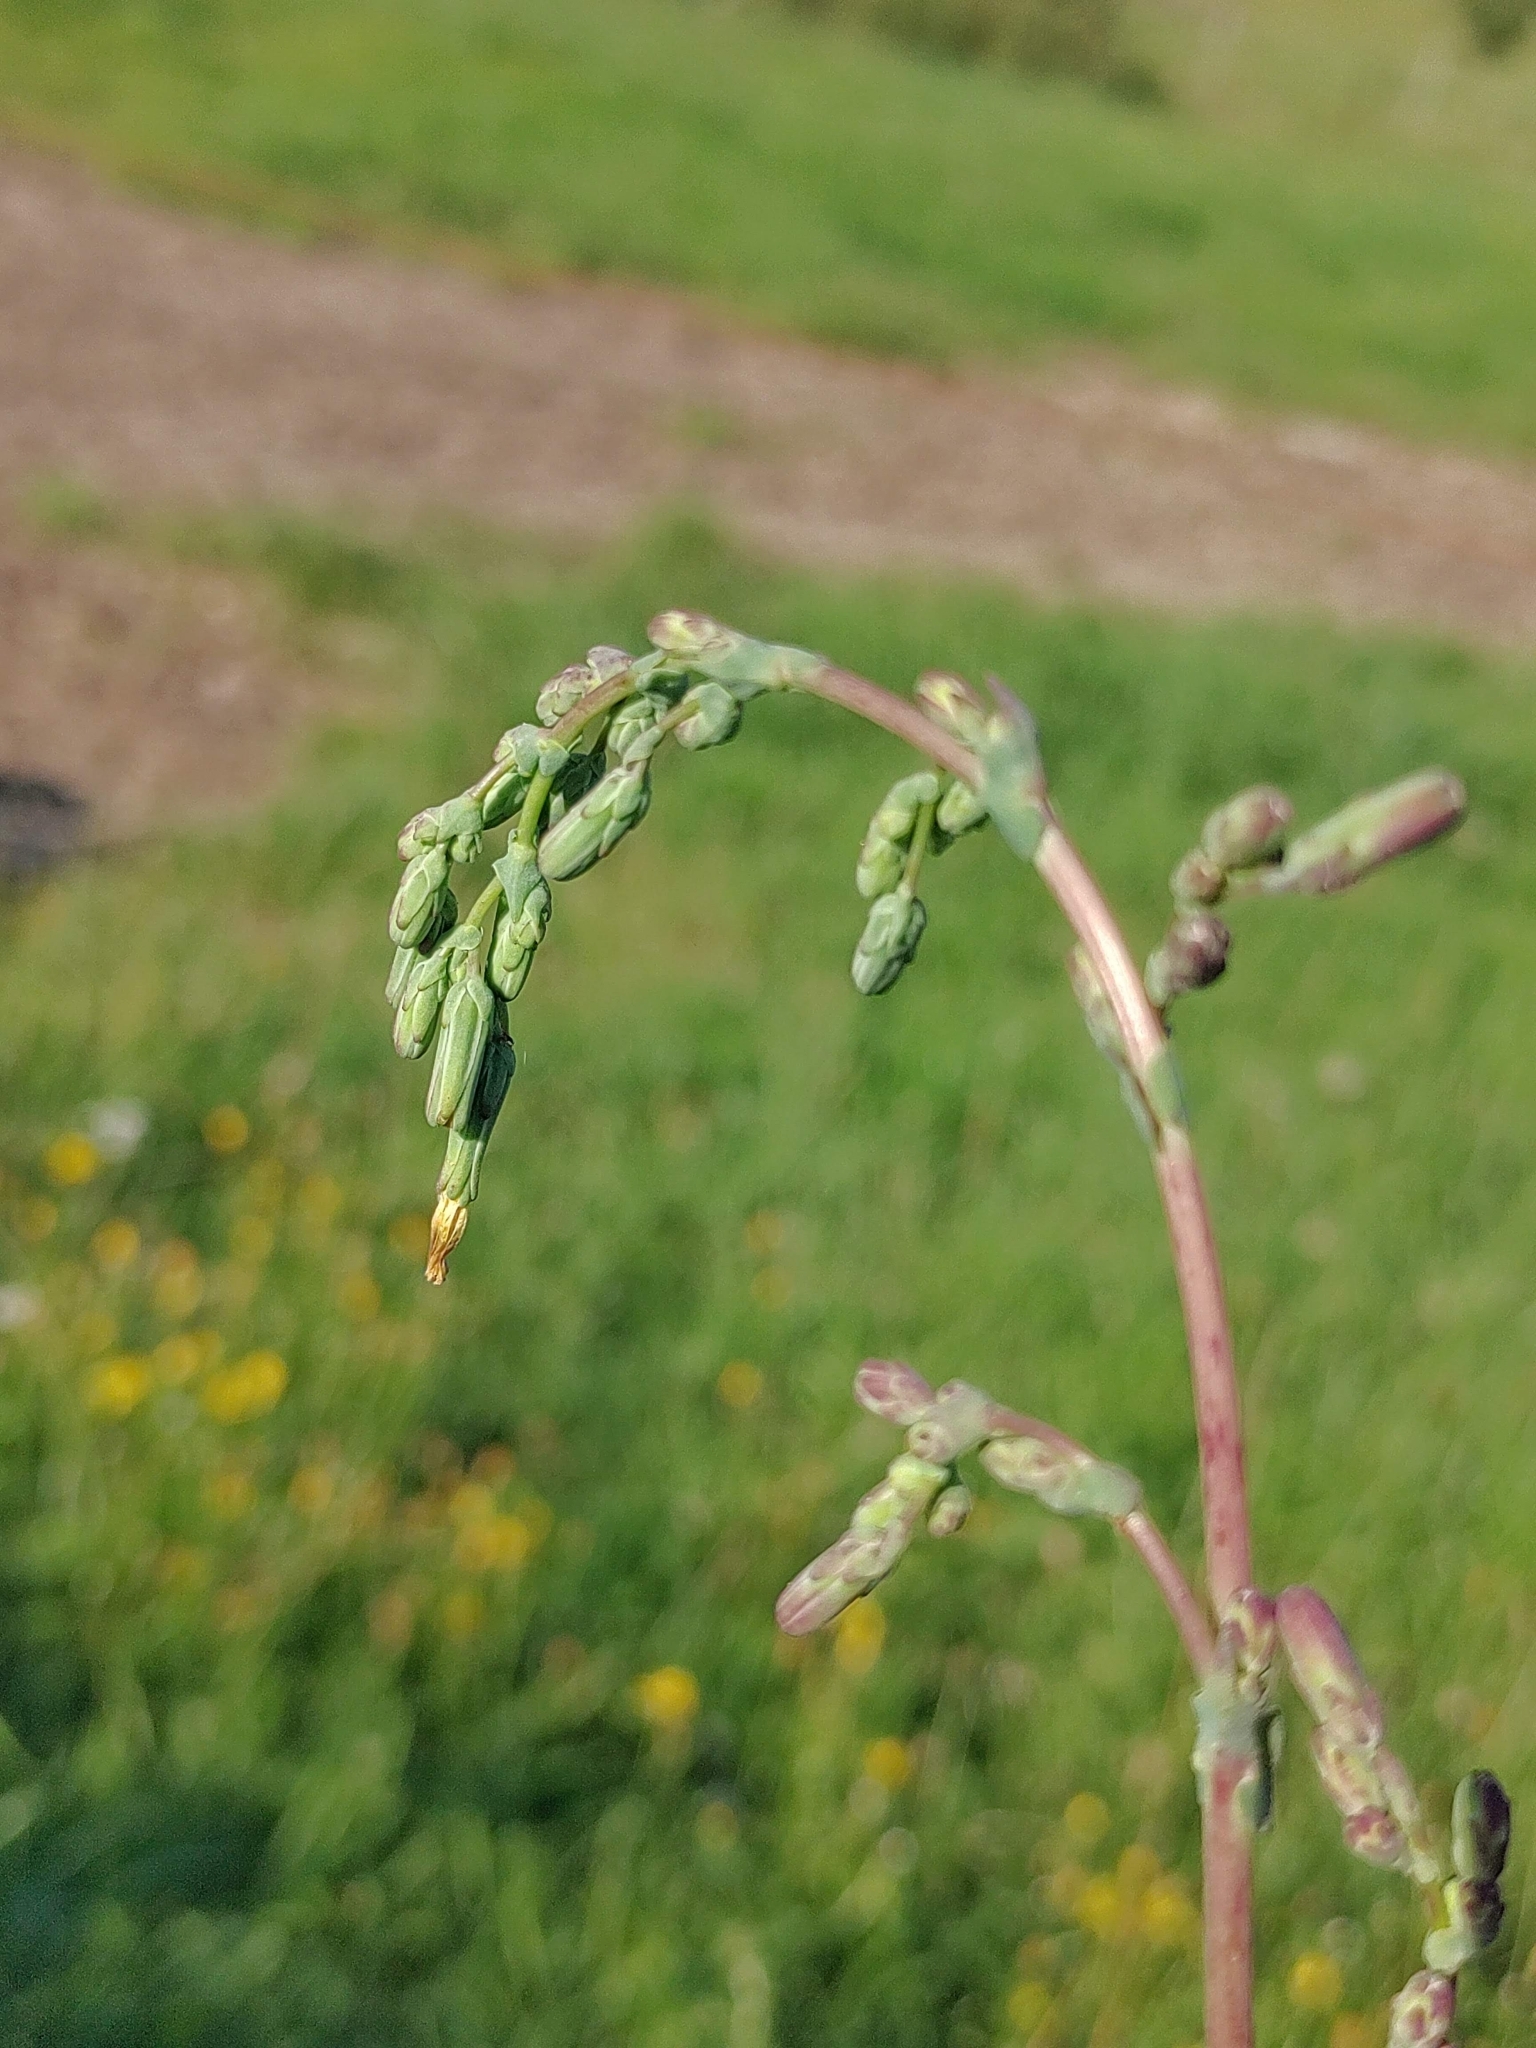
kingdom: Plantae
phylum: Tracheophyta
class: Magnoliopsida
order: Asterales
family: Asteraceae
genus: Lactuca
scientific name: Lactuca serriola
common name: Prickly lettuce
